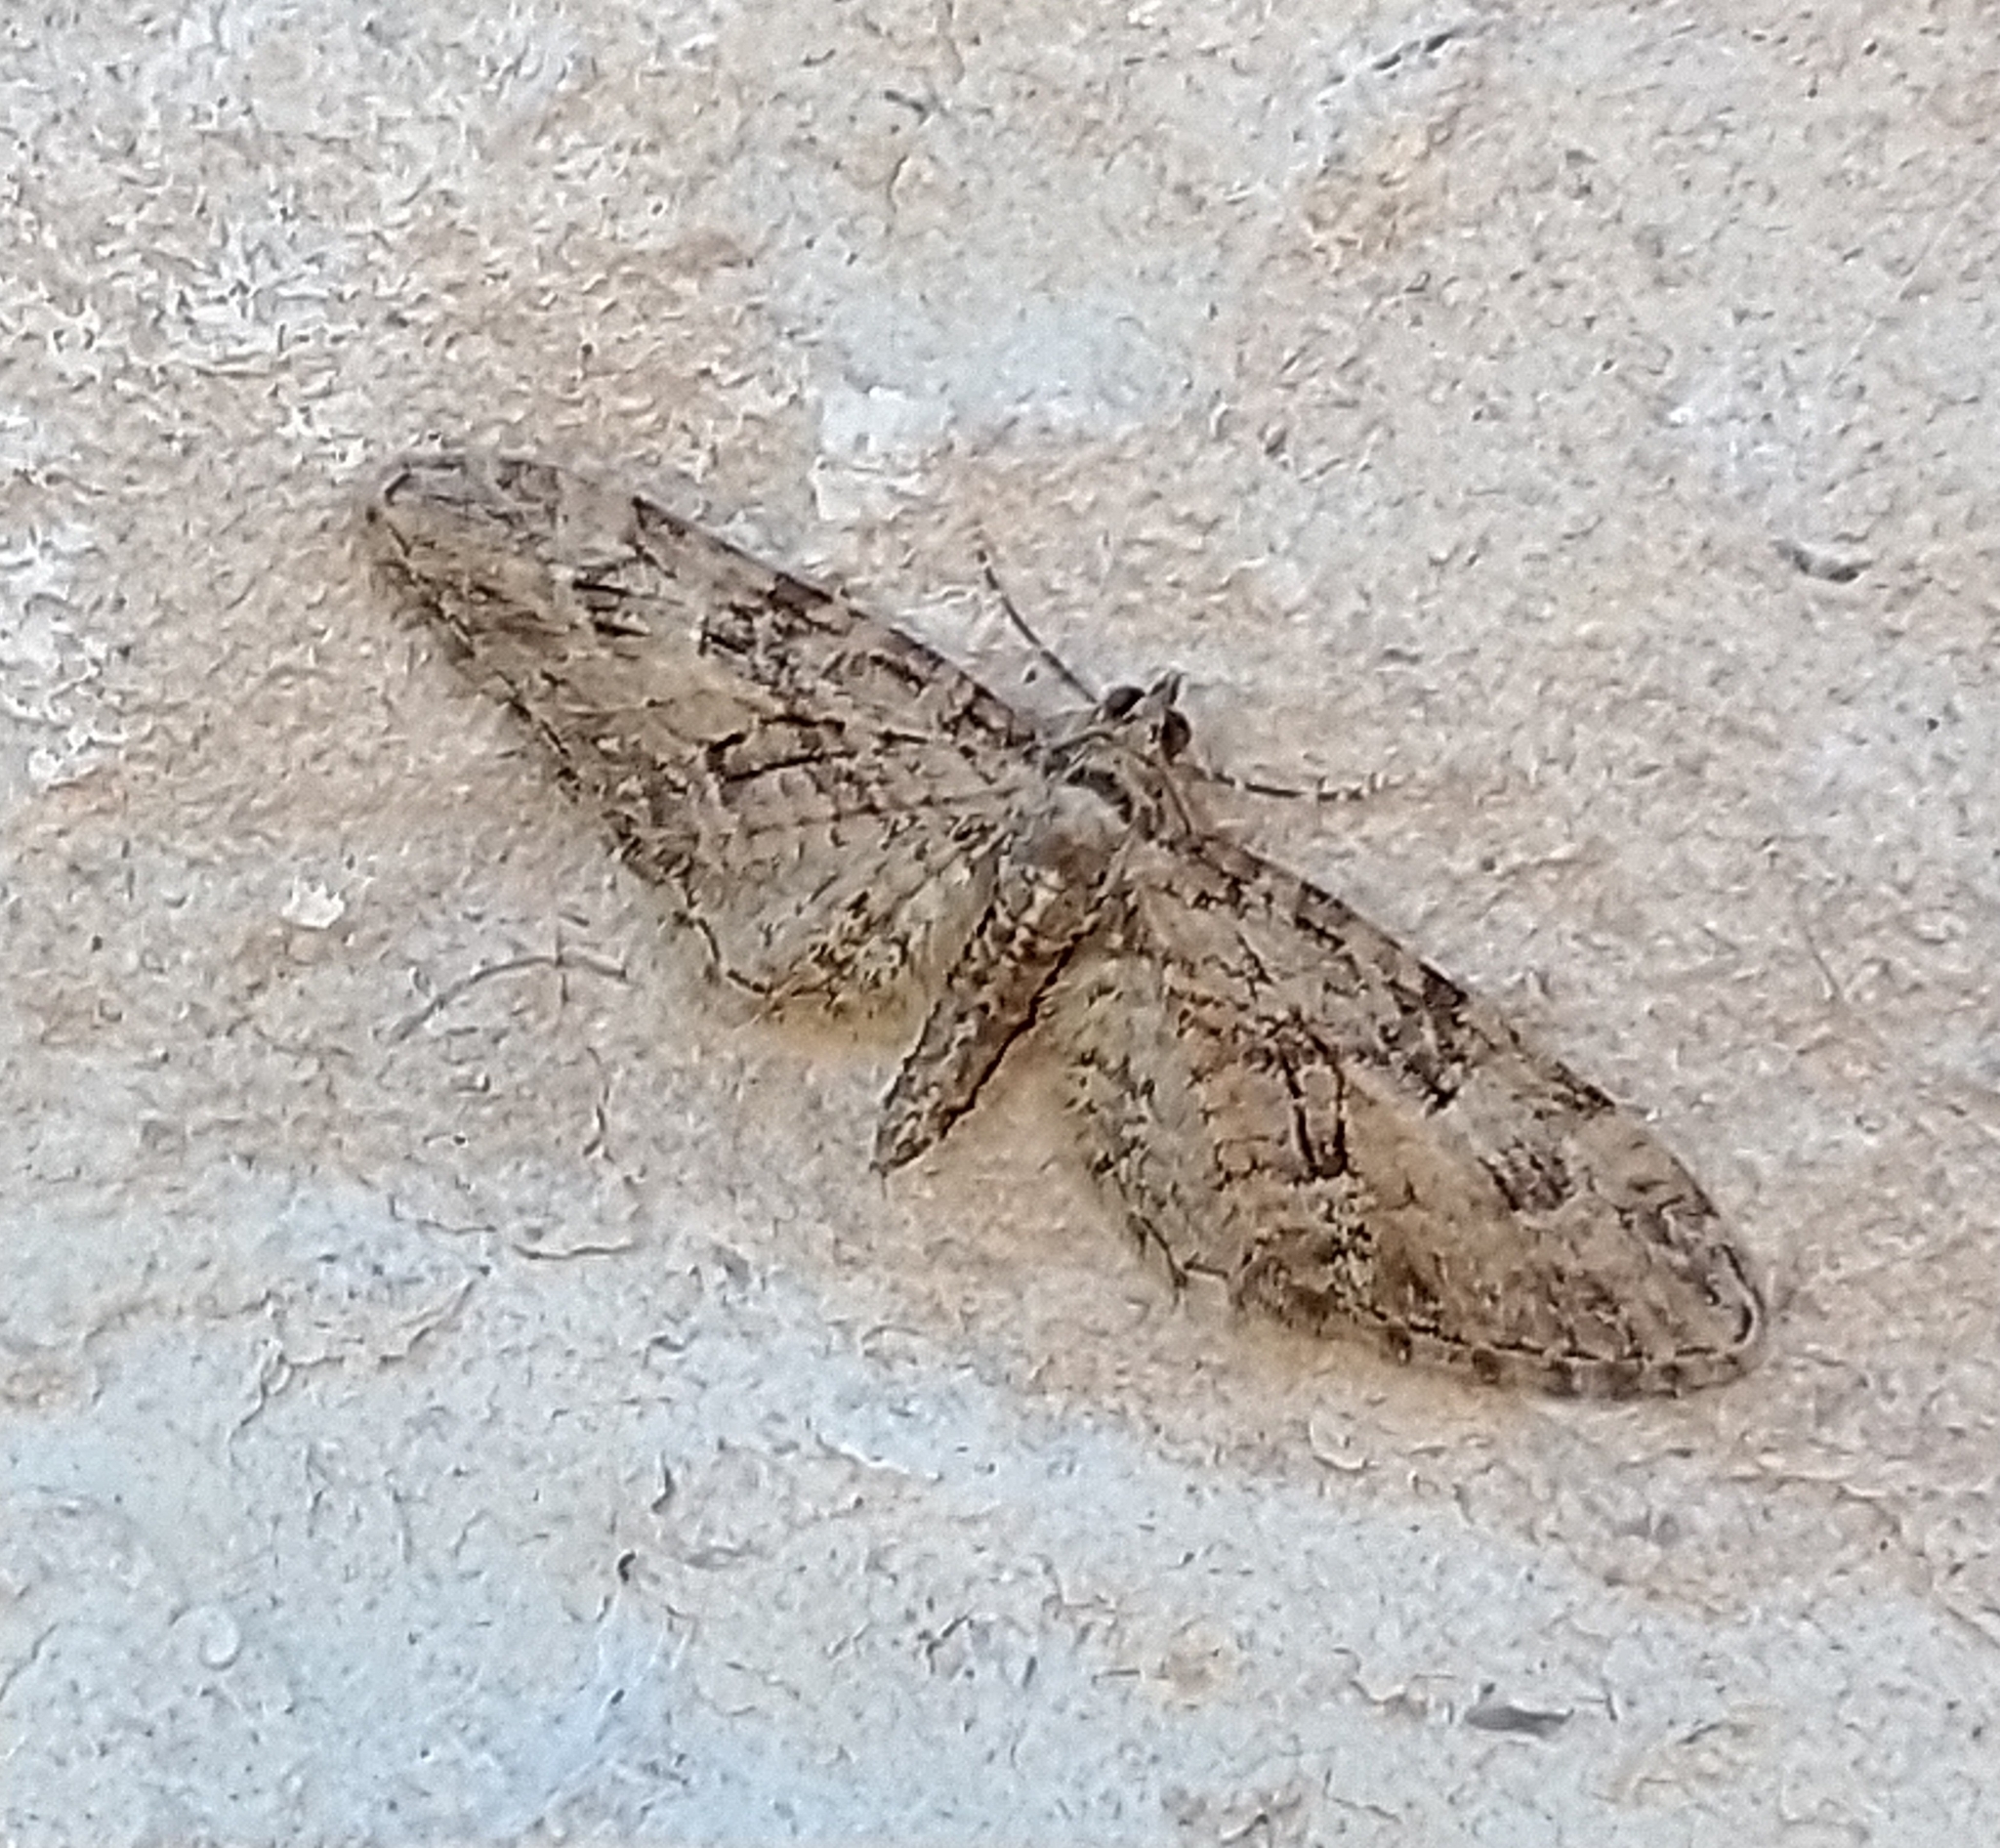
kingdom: Animalia
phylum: Arthropoda
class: Insecta
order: Lepidoptera
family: Geometridae
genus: Eupithecia
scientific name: Eupithecia abbreviata
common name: Brindled pug
